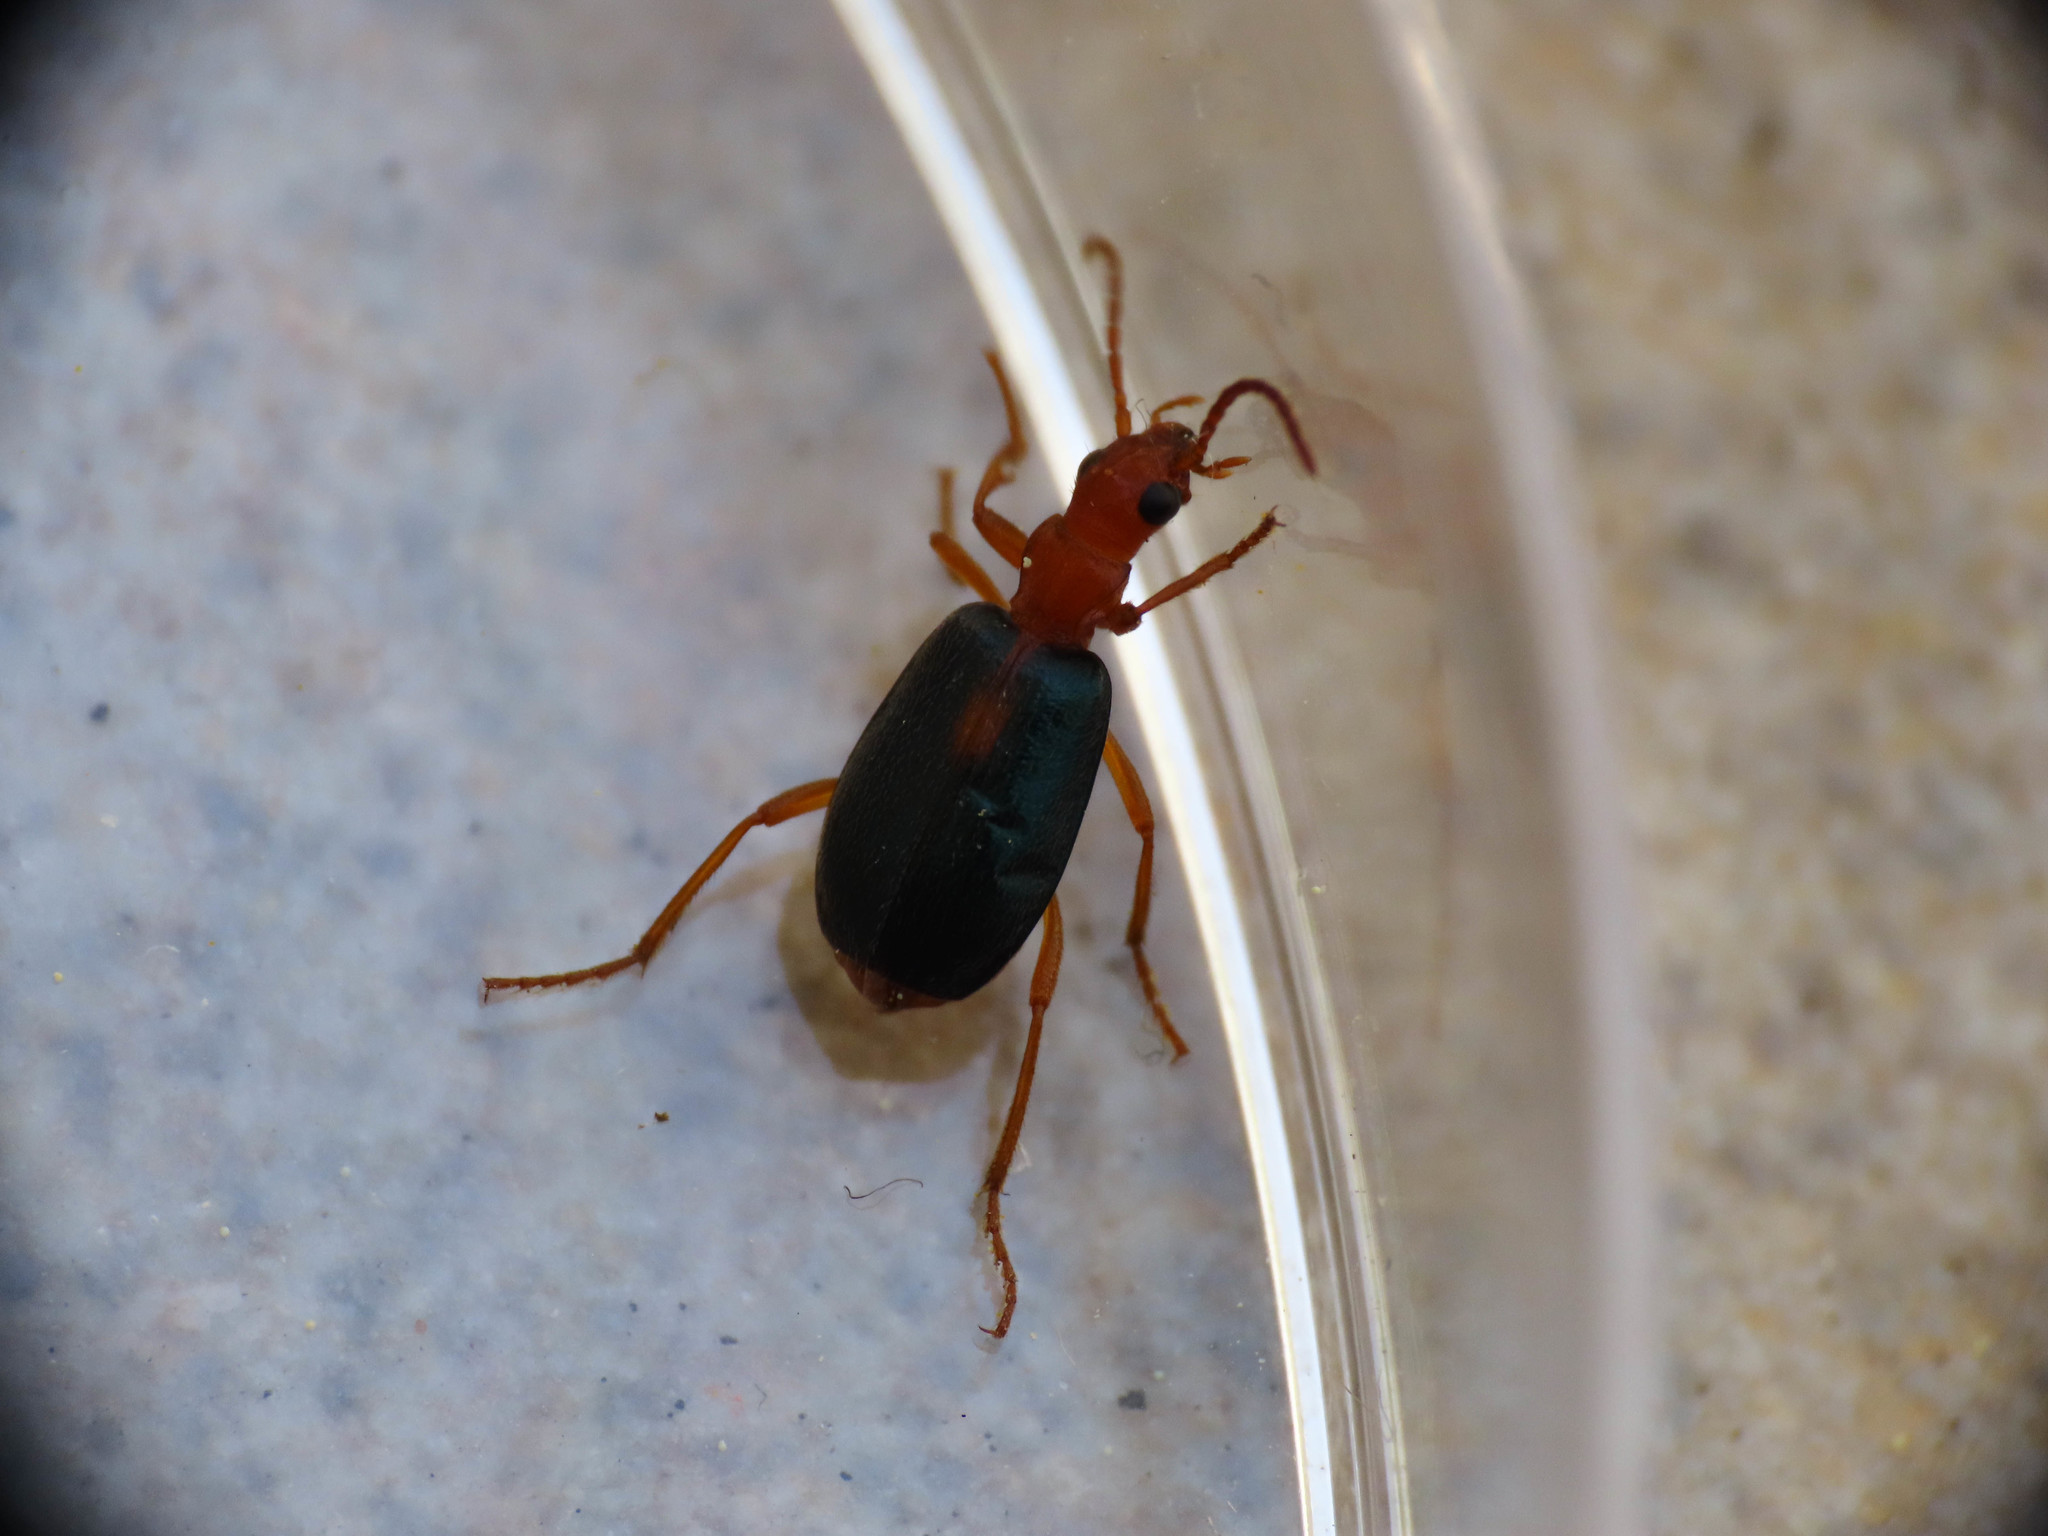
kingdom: Animalia
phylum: Arthropoda
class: Insecta
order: Coleoptera
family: Carabidae
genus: Brachinus
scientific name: Brachinus sclopeta
